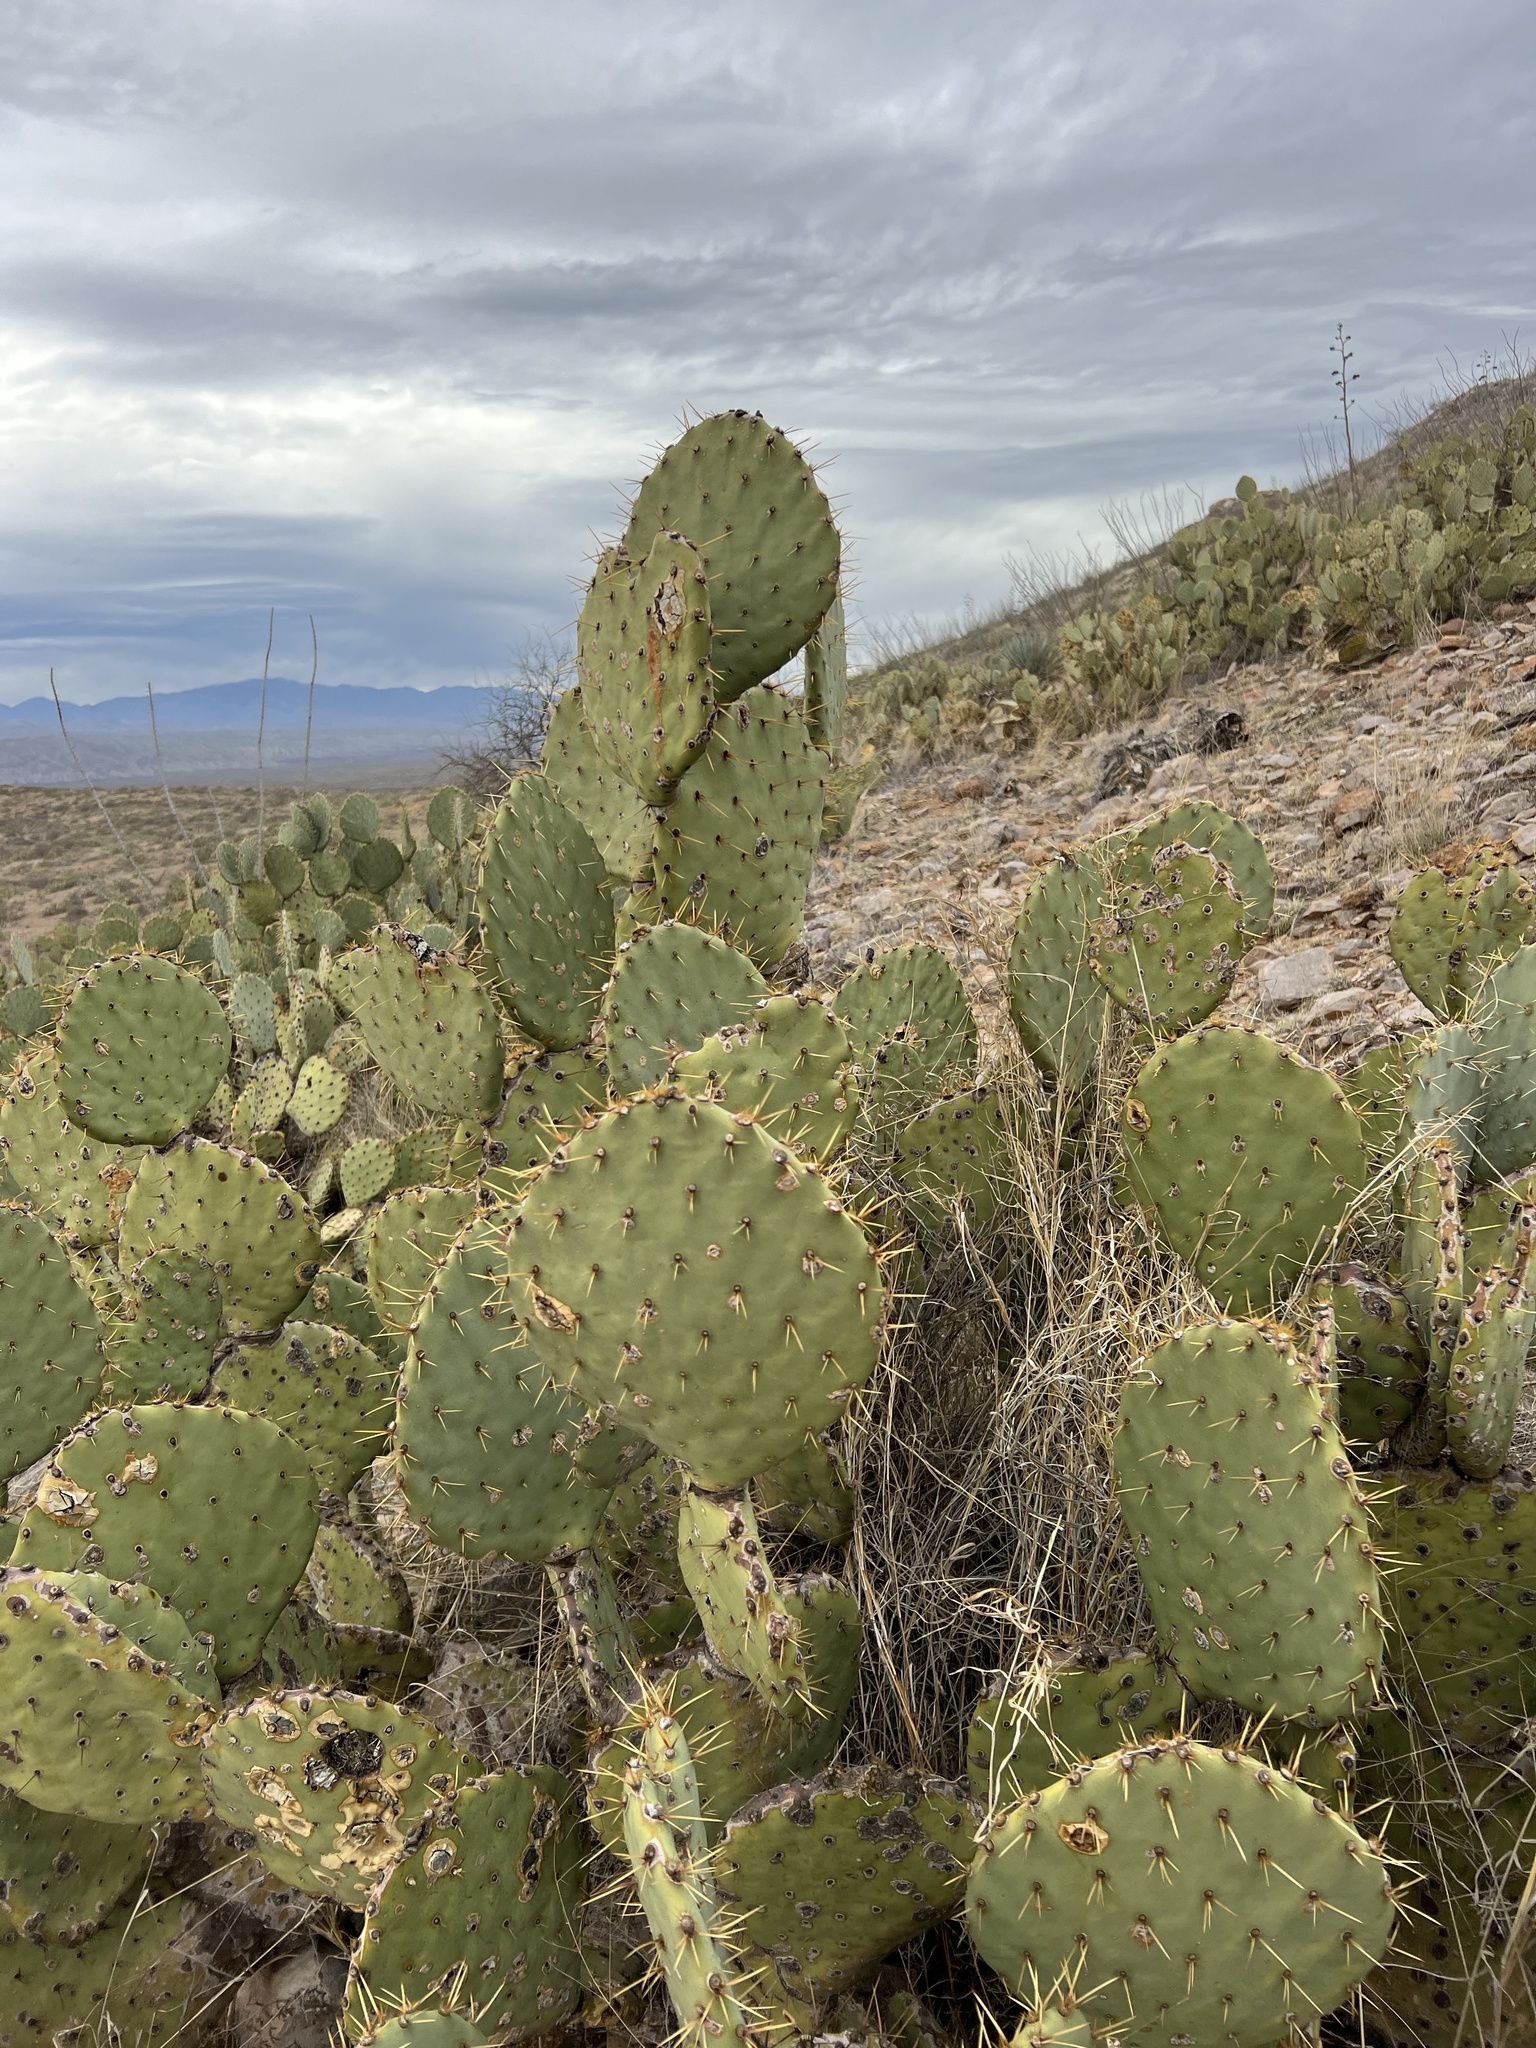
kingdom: Plantae
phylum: Tracheophyta
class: Magnoliopsida
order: Caryophyllales
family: Cactaceae
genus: Opuntia
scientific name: Opuntia engelmannii
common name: Cactus-apple
